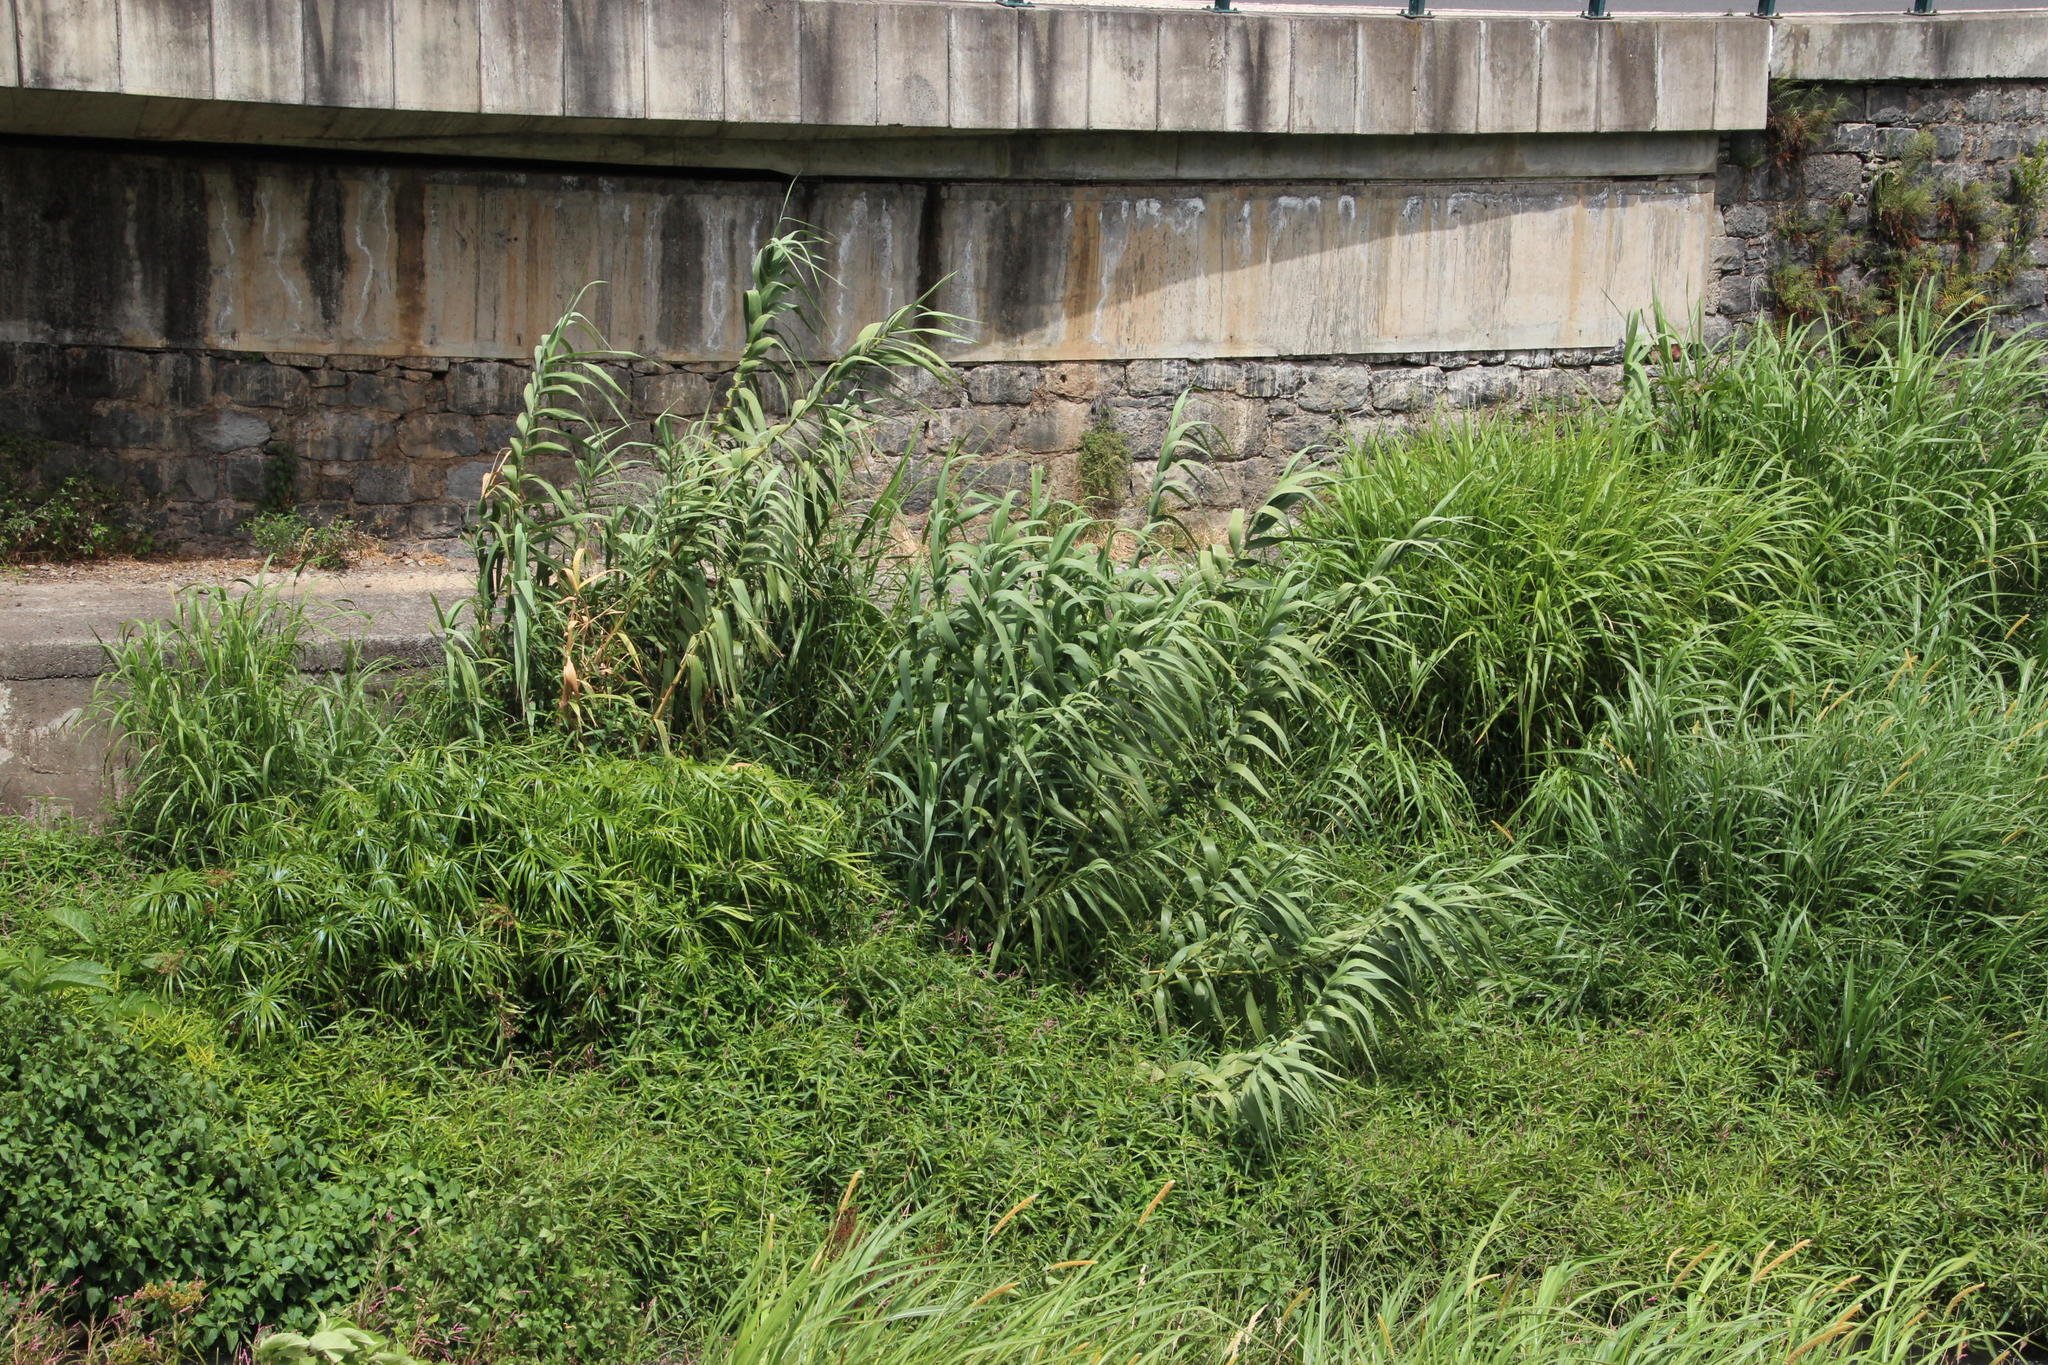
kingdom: Plantae
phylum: Tracheophyta
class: Liliopsida
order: Poales
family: Poaceae
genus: Arundo
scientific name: Arundo donax
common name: Giant reed
